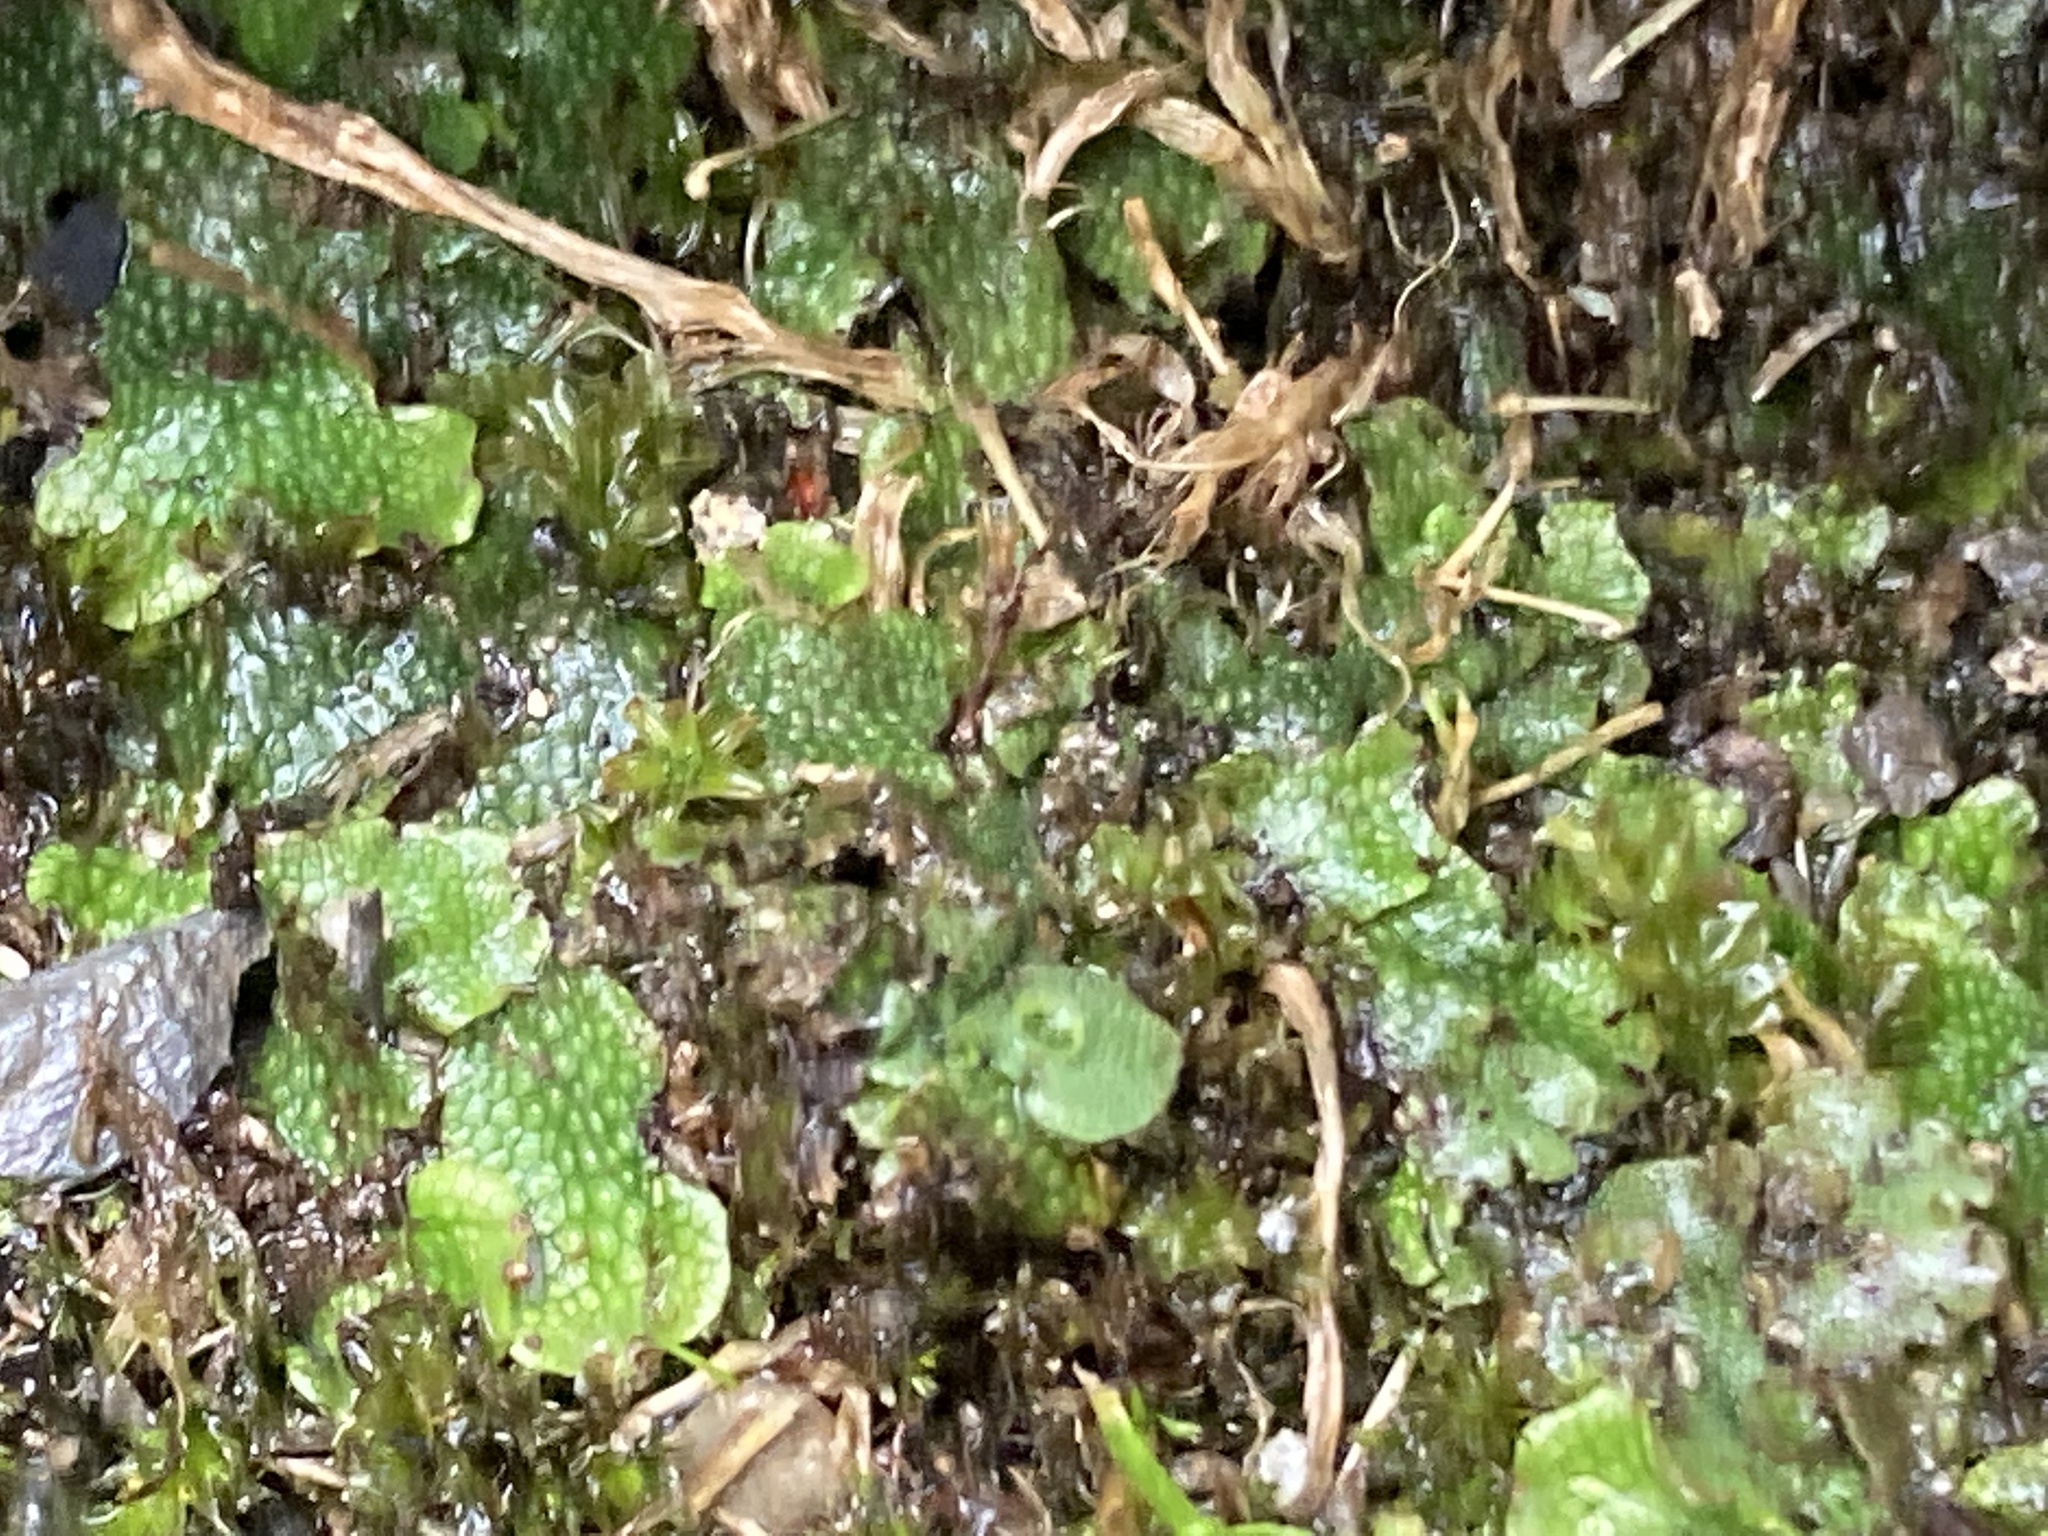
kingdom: Plantae
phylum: Marchantiophyta
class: Marchantiopsida
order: Marchantiales
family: Marchantiaceae
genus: Marchantia
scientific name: Marchantia polymorpha
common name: Common liverwort
